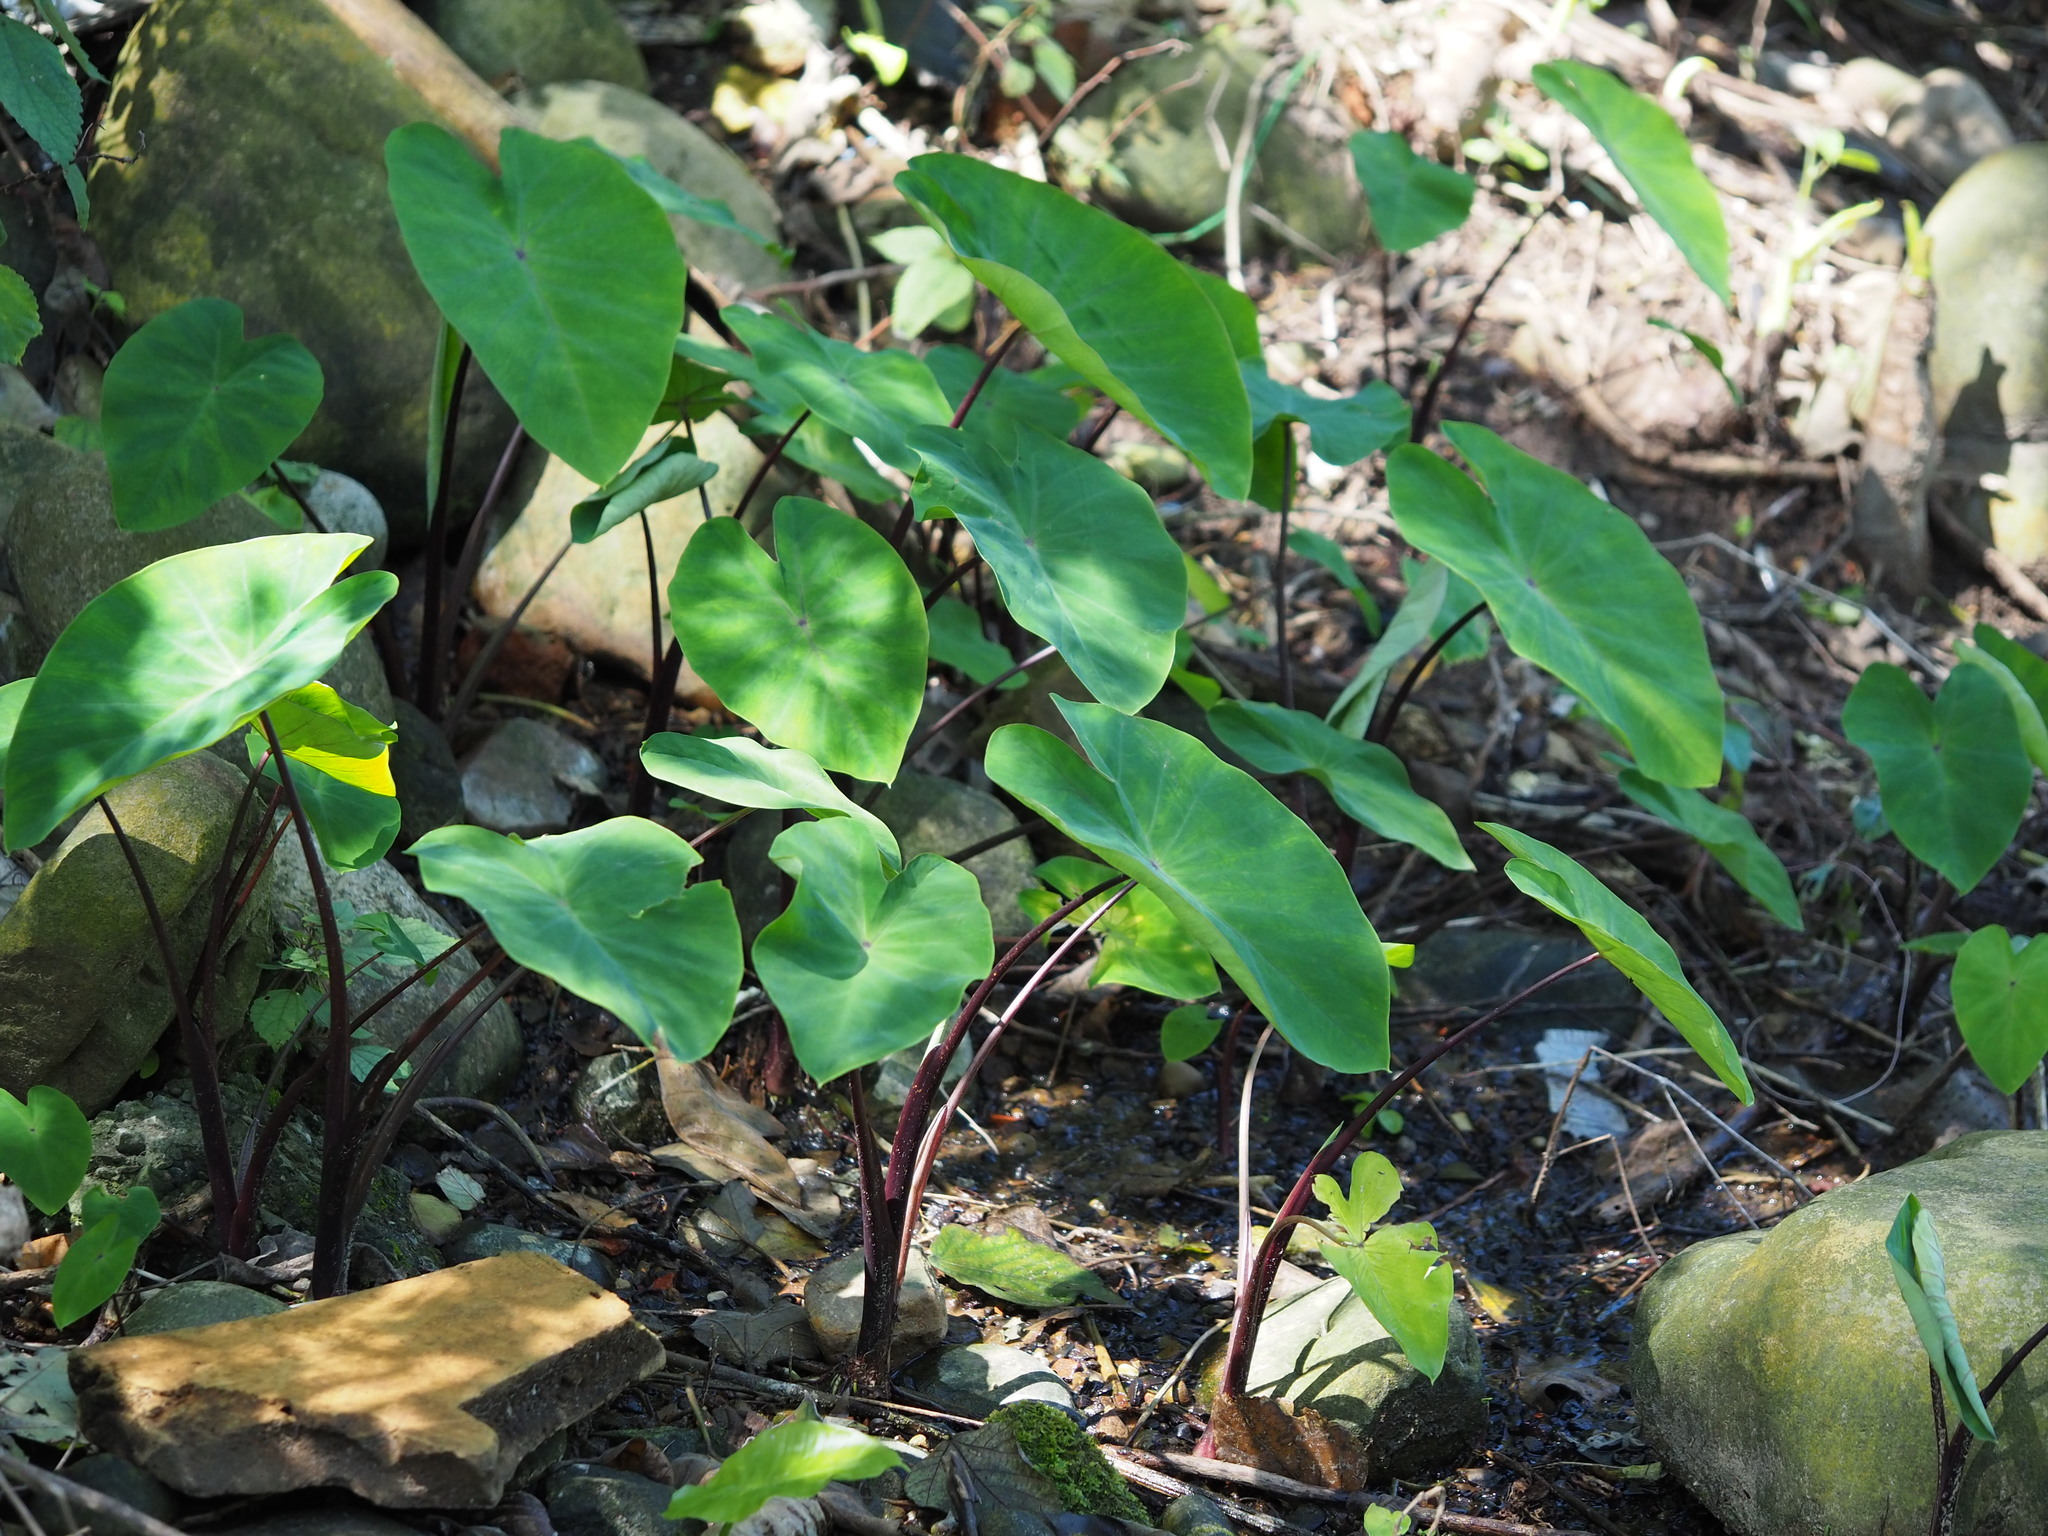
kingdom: Plantae
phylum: Tracheophyta
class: Liliopsida
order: Alismatales
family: Araceae
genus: Colocasia
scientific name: Colocasia esculenta
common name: Taro
